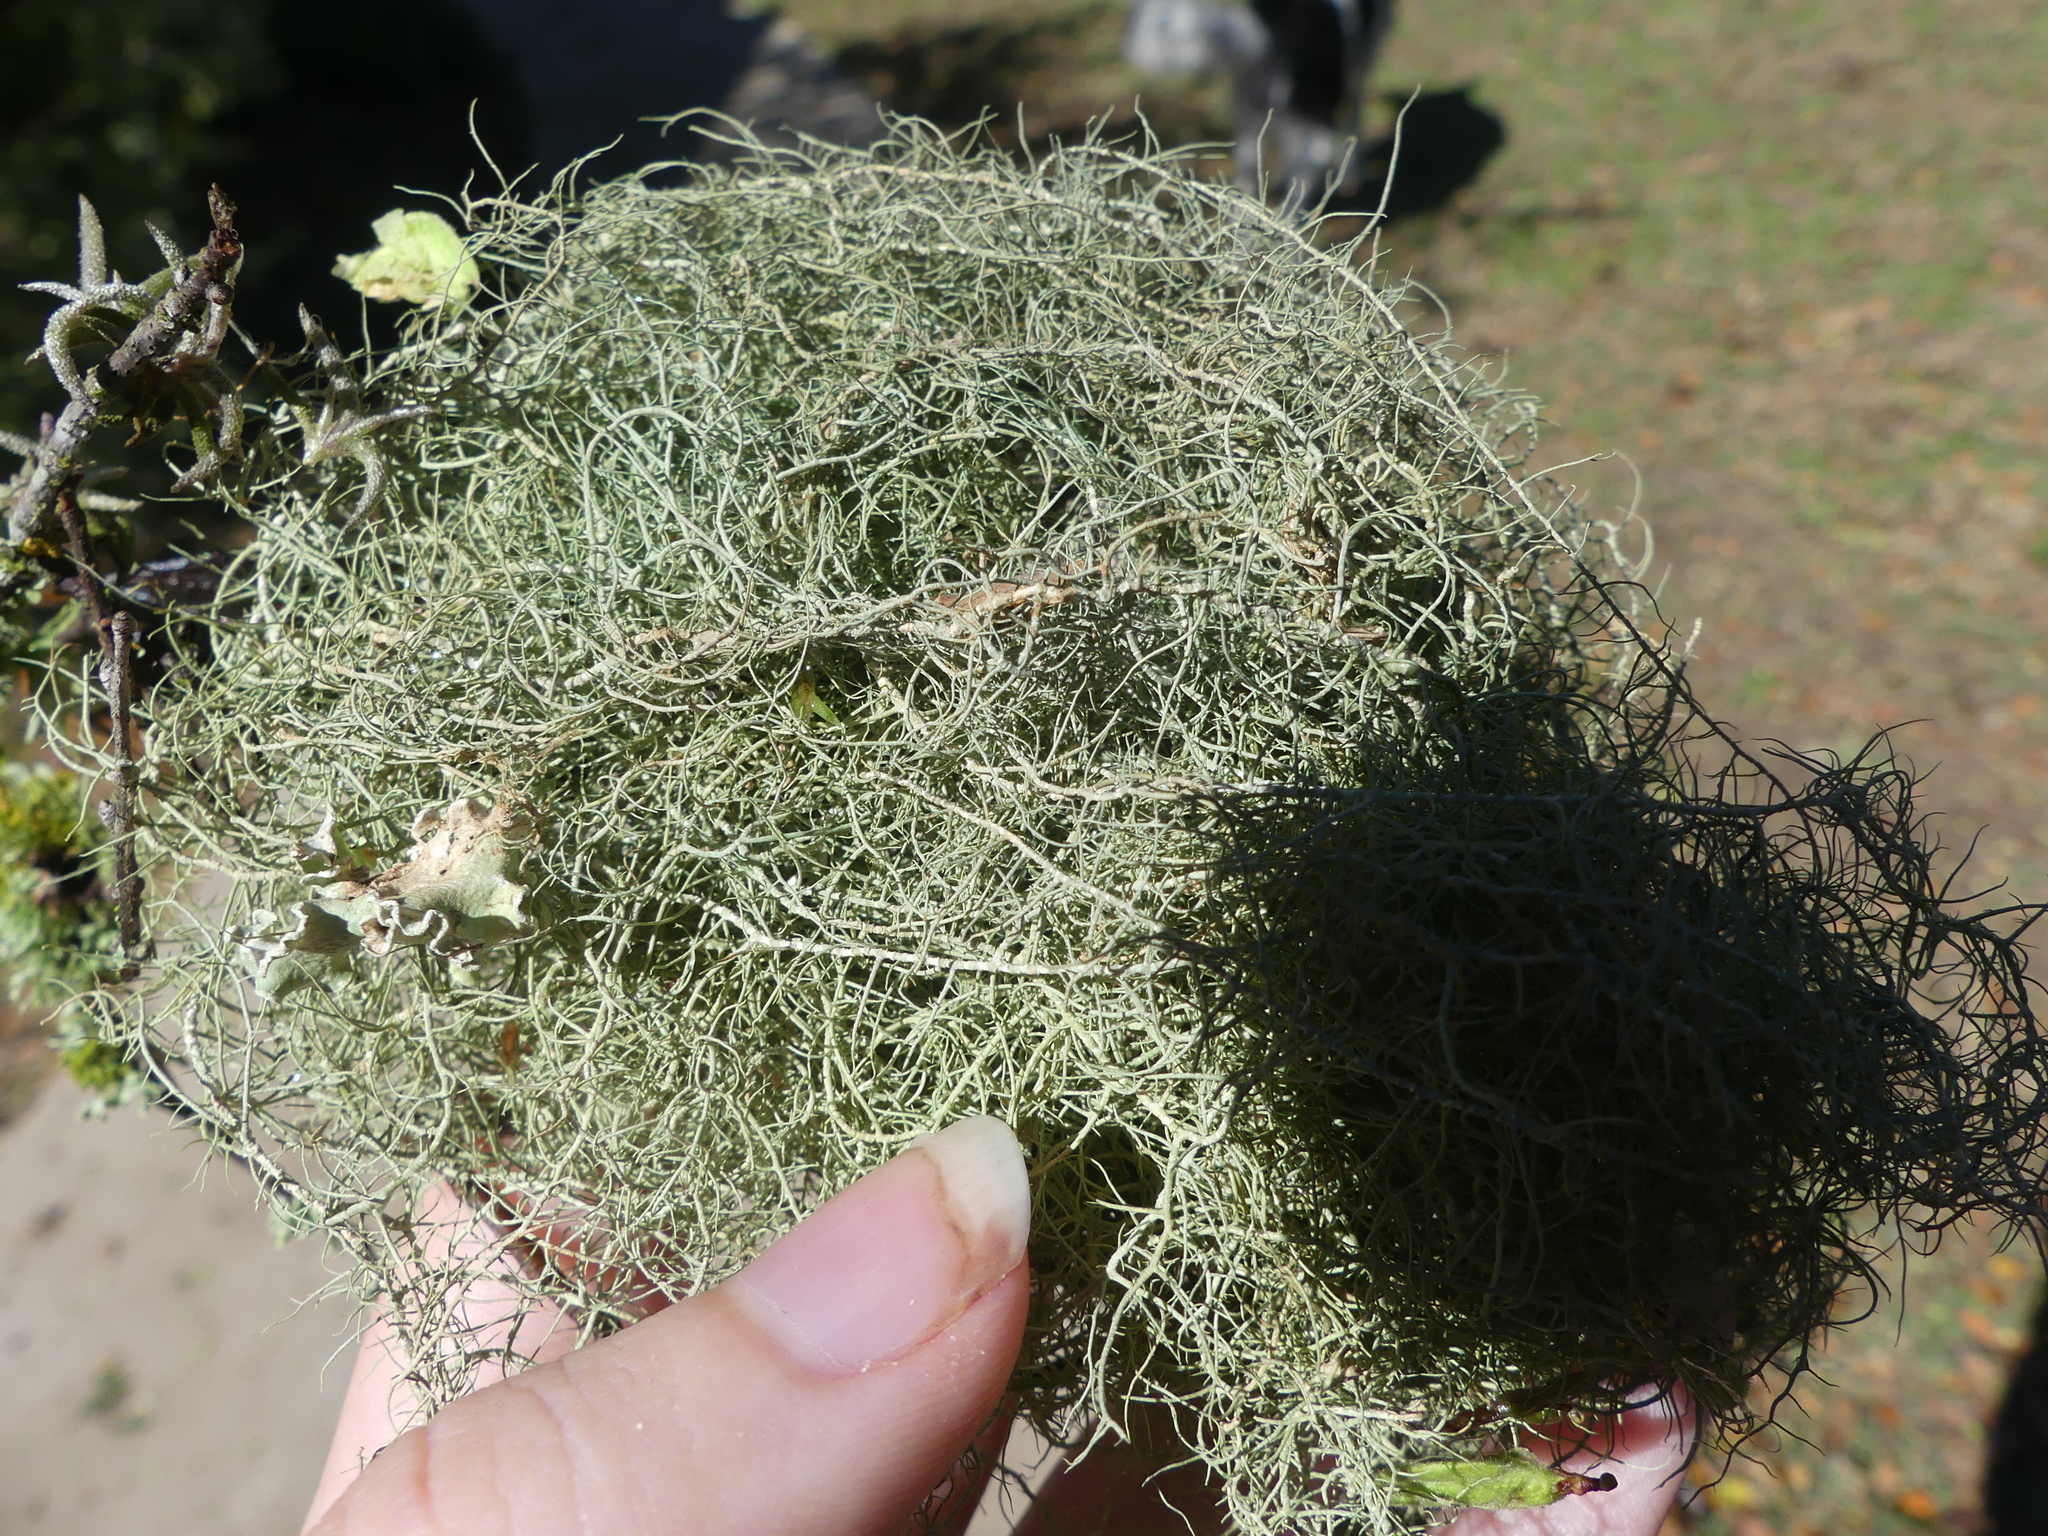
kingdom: Fungi
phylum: Ascomycota
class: Lecanoromycetes
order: Lecanorales
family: Parmeliaceae
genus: Usnea
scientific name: Usnea trichodea
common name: Bony beard lichen
